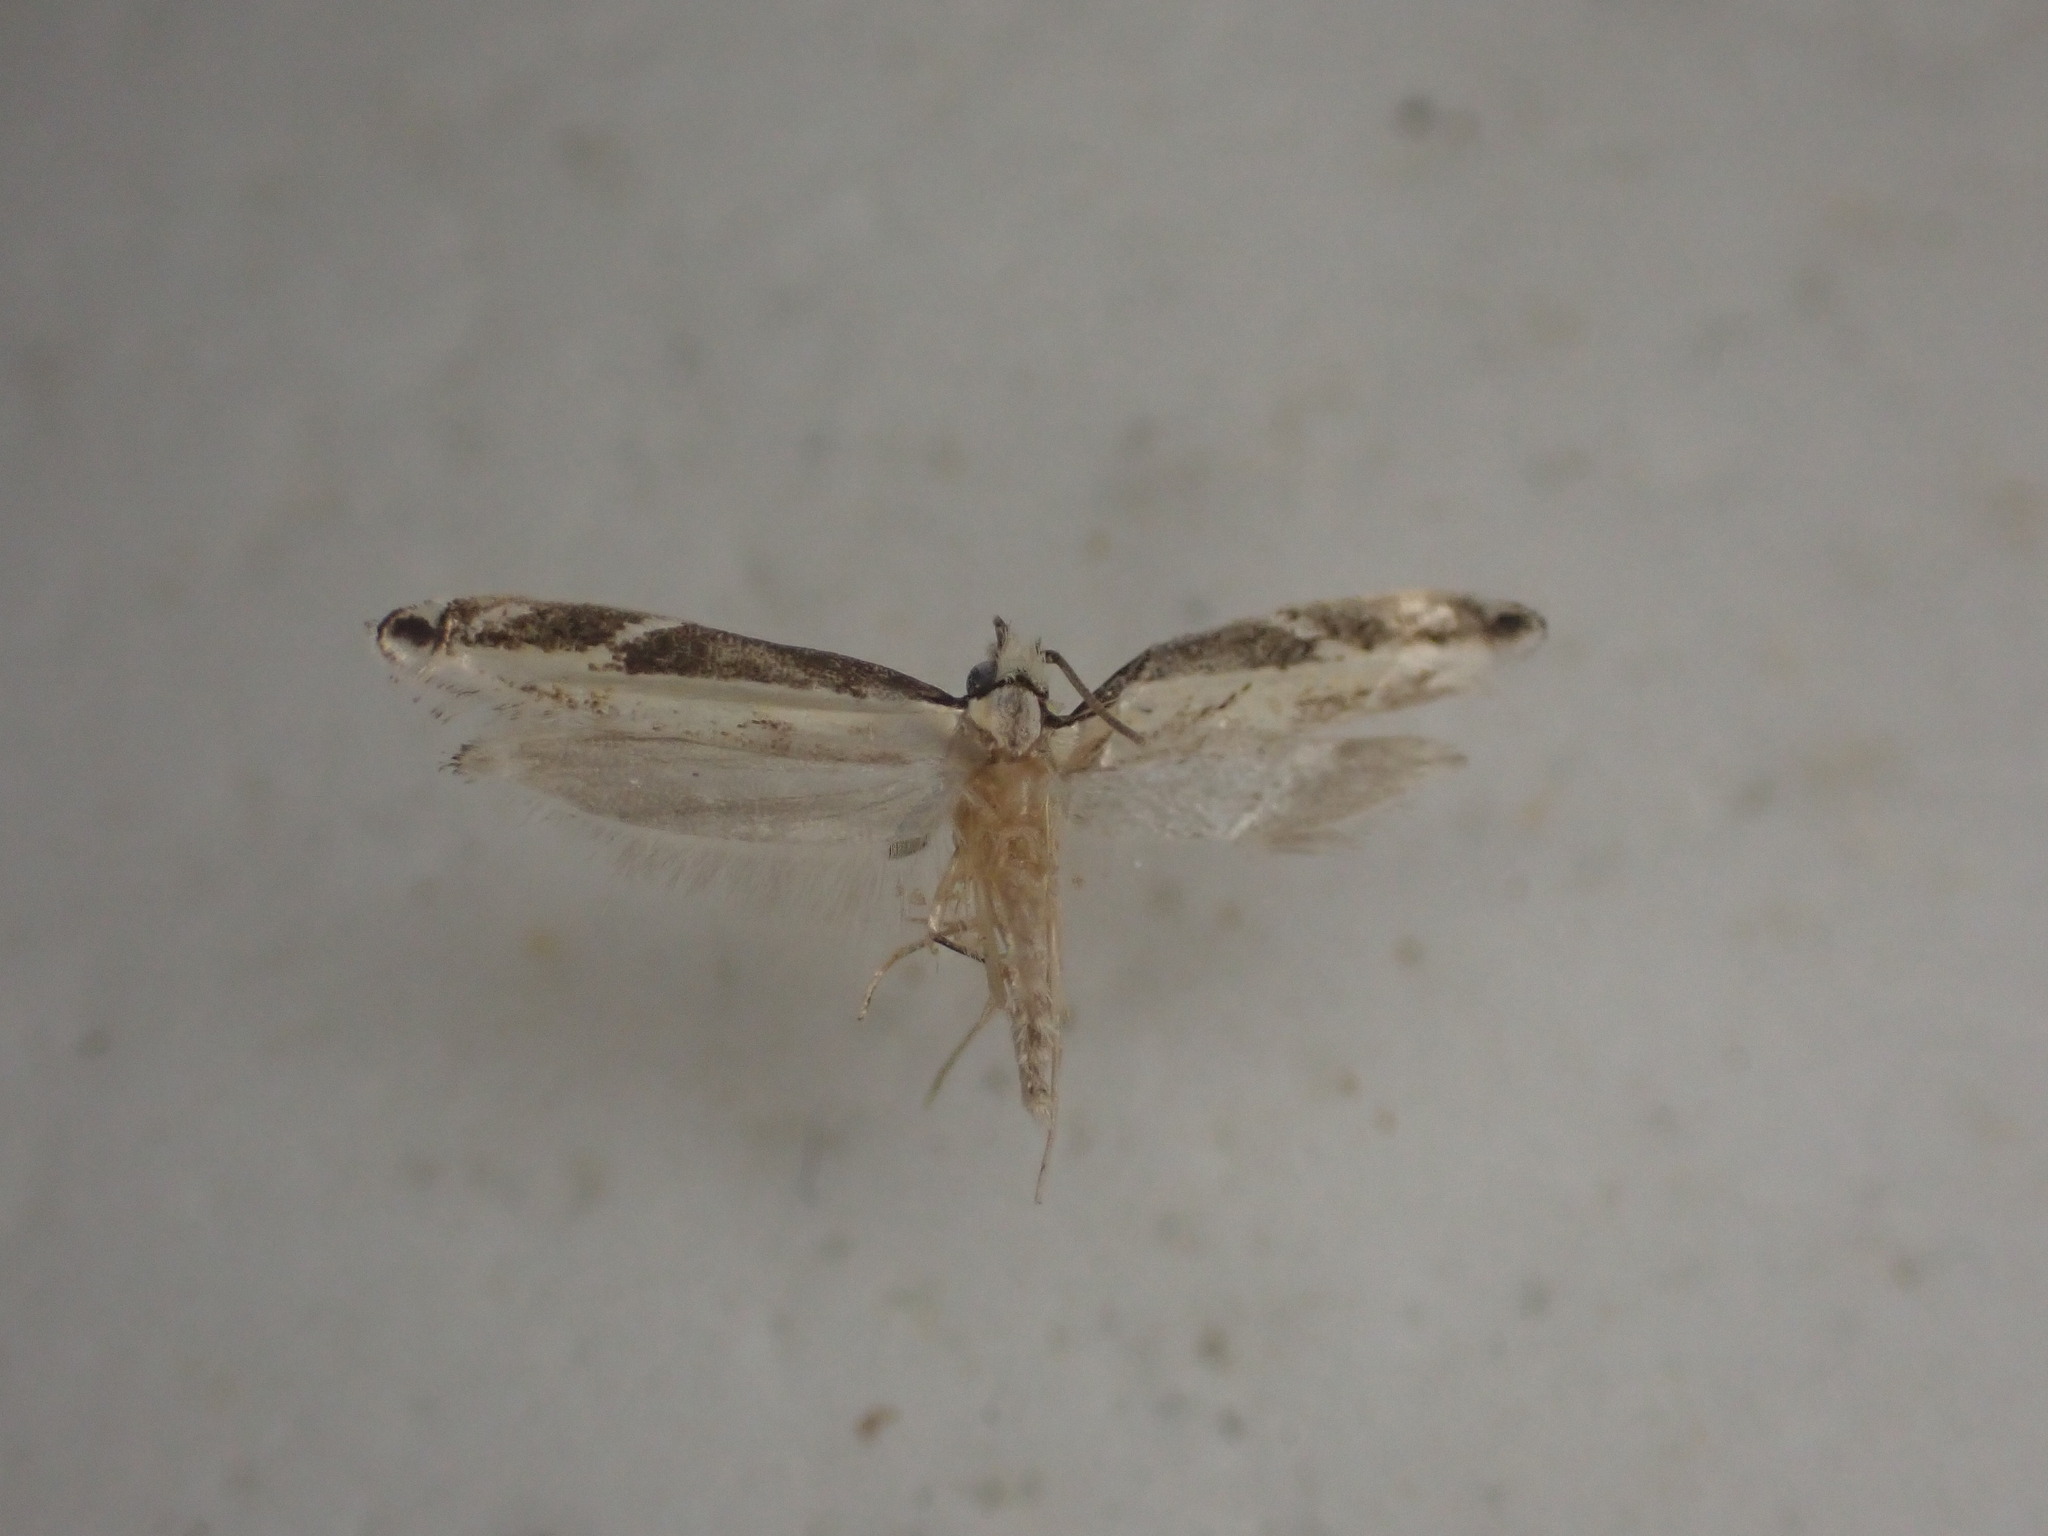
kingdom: Animalia
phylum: Arthropoda
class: Insecta
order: Lepidoptera
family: Tineidae
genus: Erechthias
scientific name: Erechthias terminella
